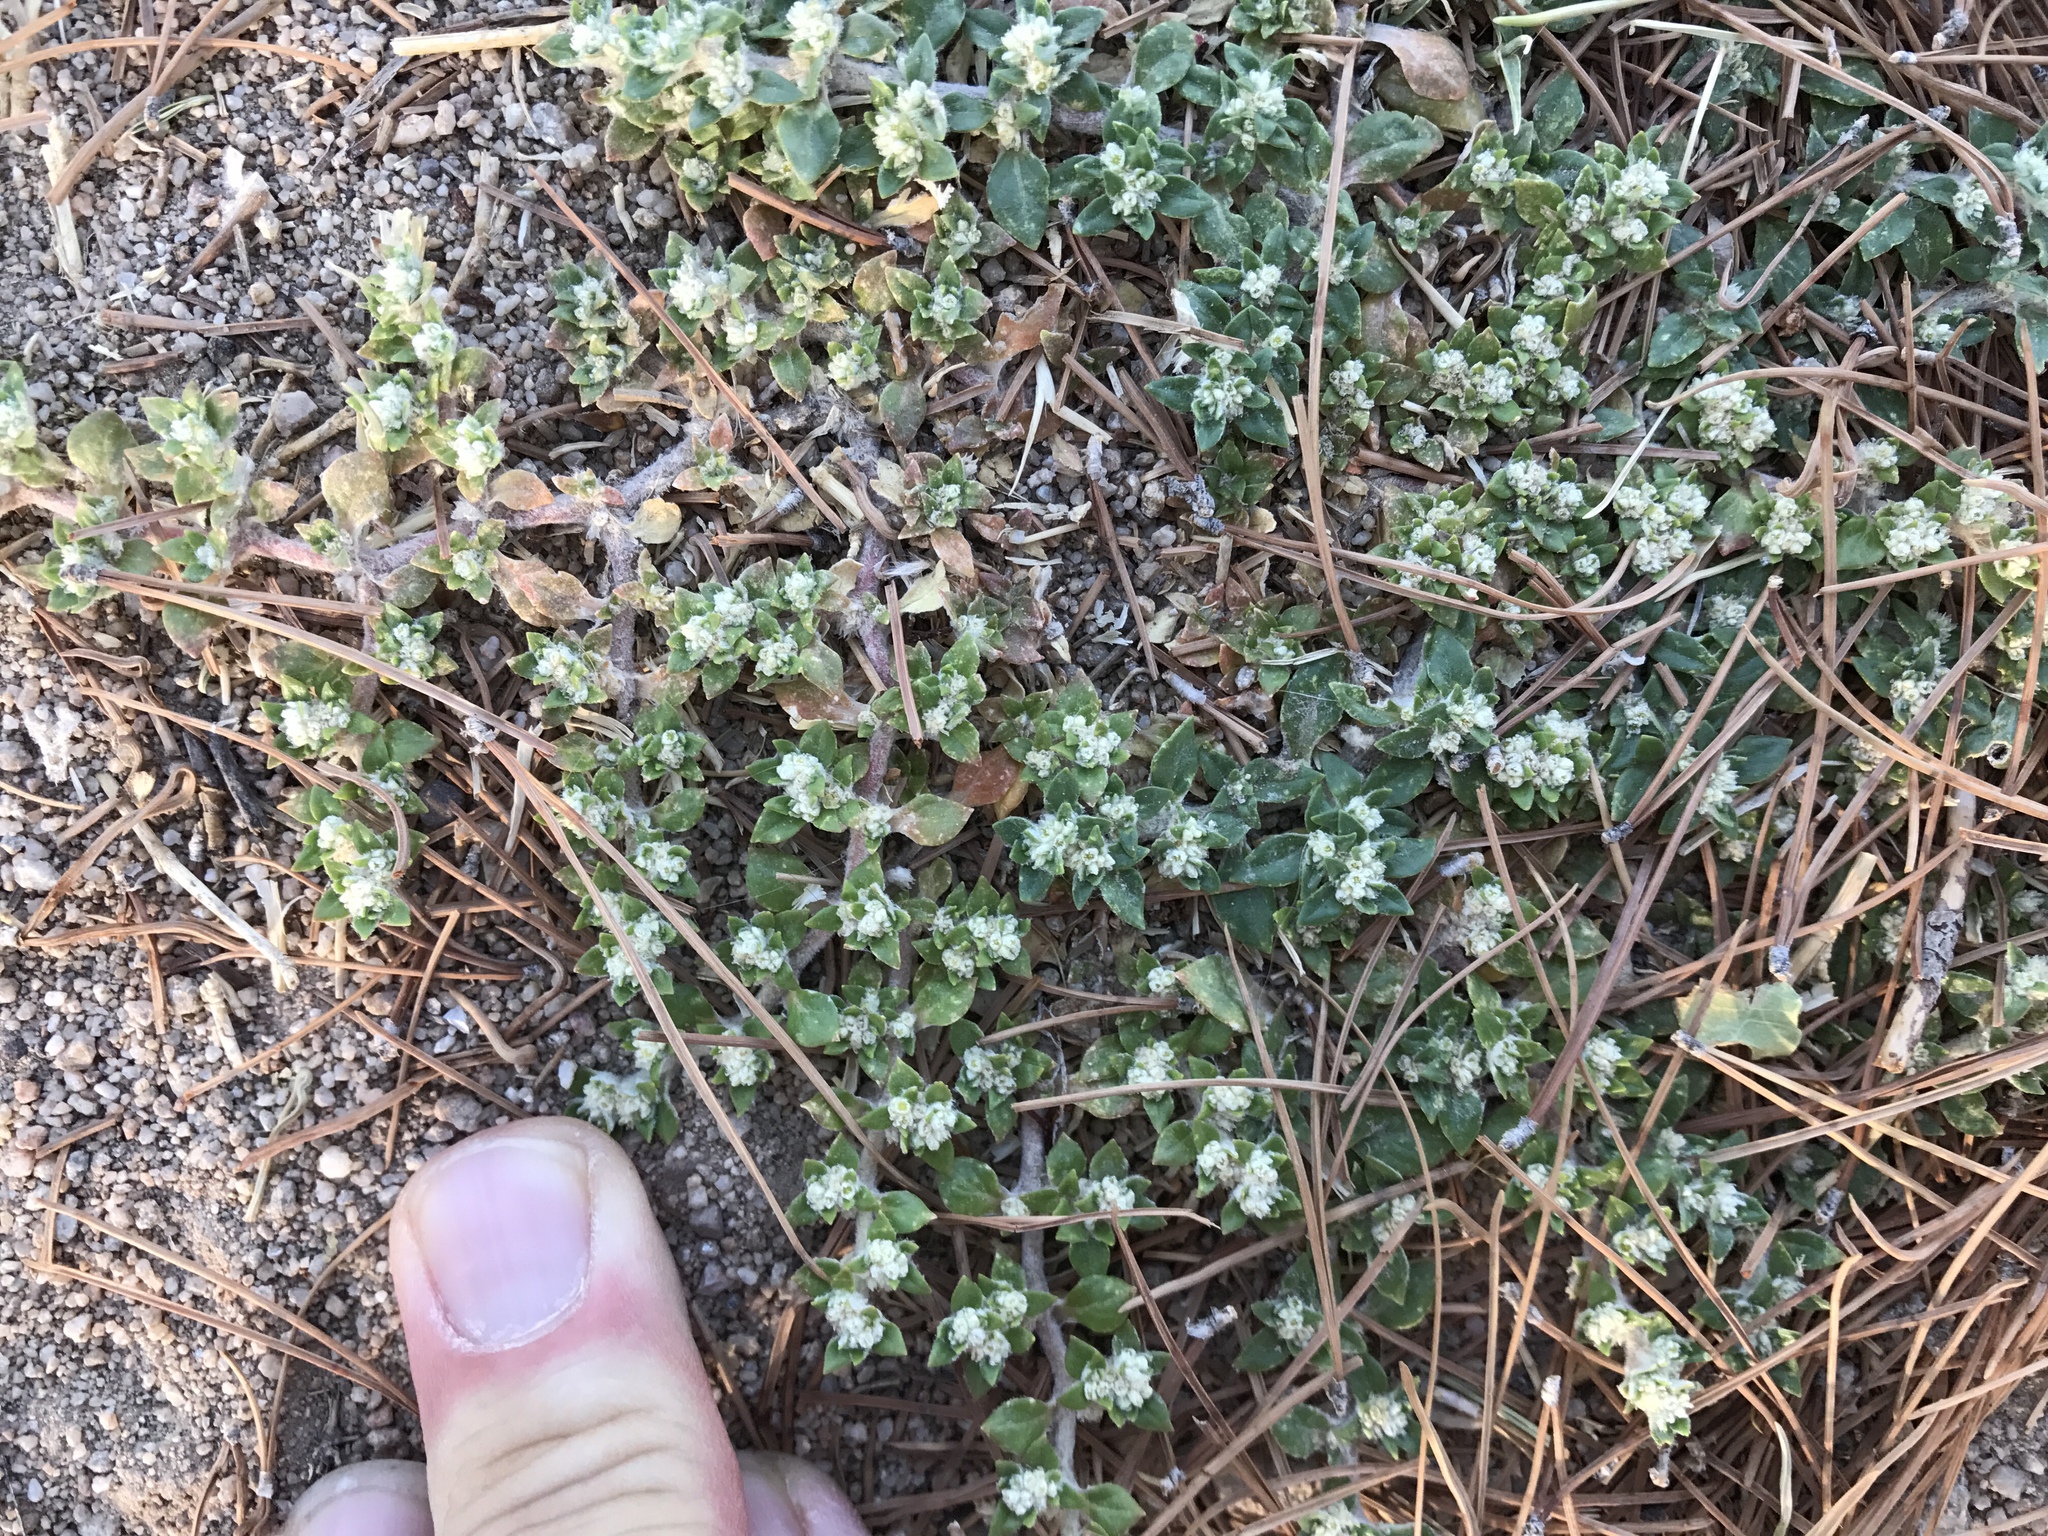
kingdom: Plantae
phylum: Tracheophyta
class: Magnoliopsida
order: Caryophyllales
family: Amaranthaceae
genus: Guilleminea
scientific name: Guilleminea densa
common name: Small matweed
